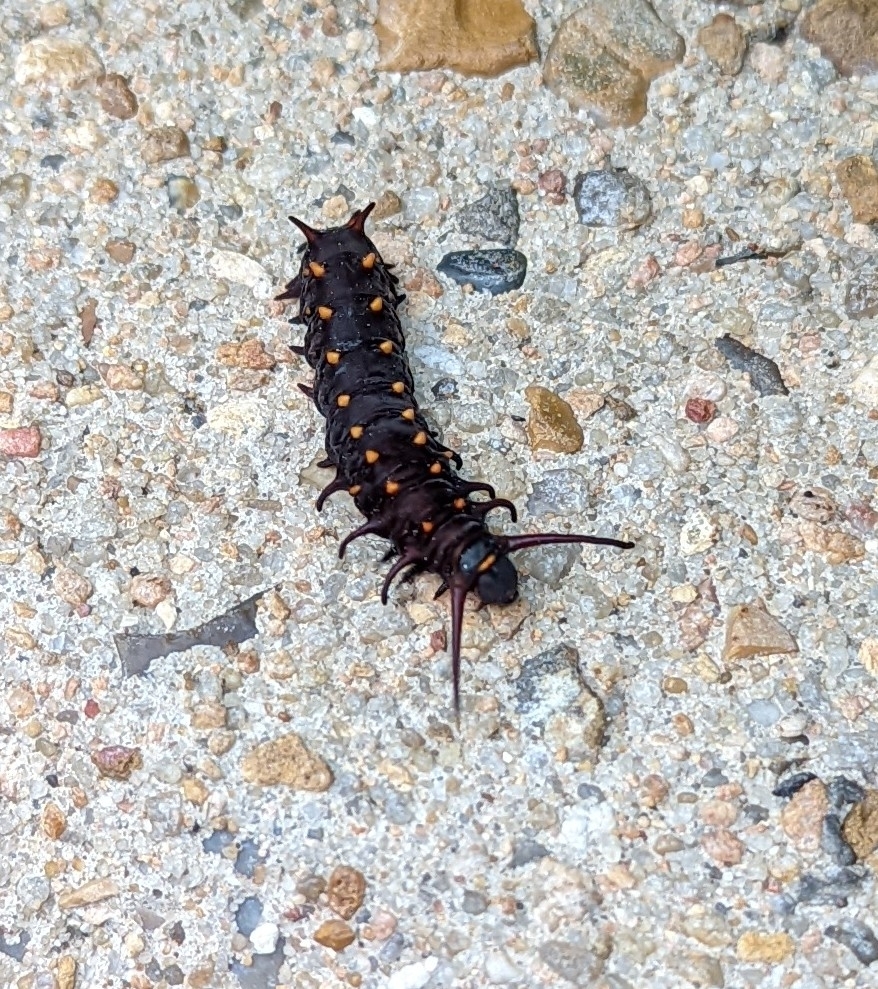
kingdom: Animalia
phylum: Arthropoda
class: Insecta
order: Lepidoptera
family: Papilionidae
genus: Battus
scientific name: Battus philenor
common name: Pipevine swallowtail
